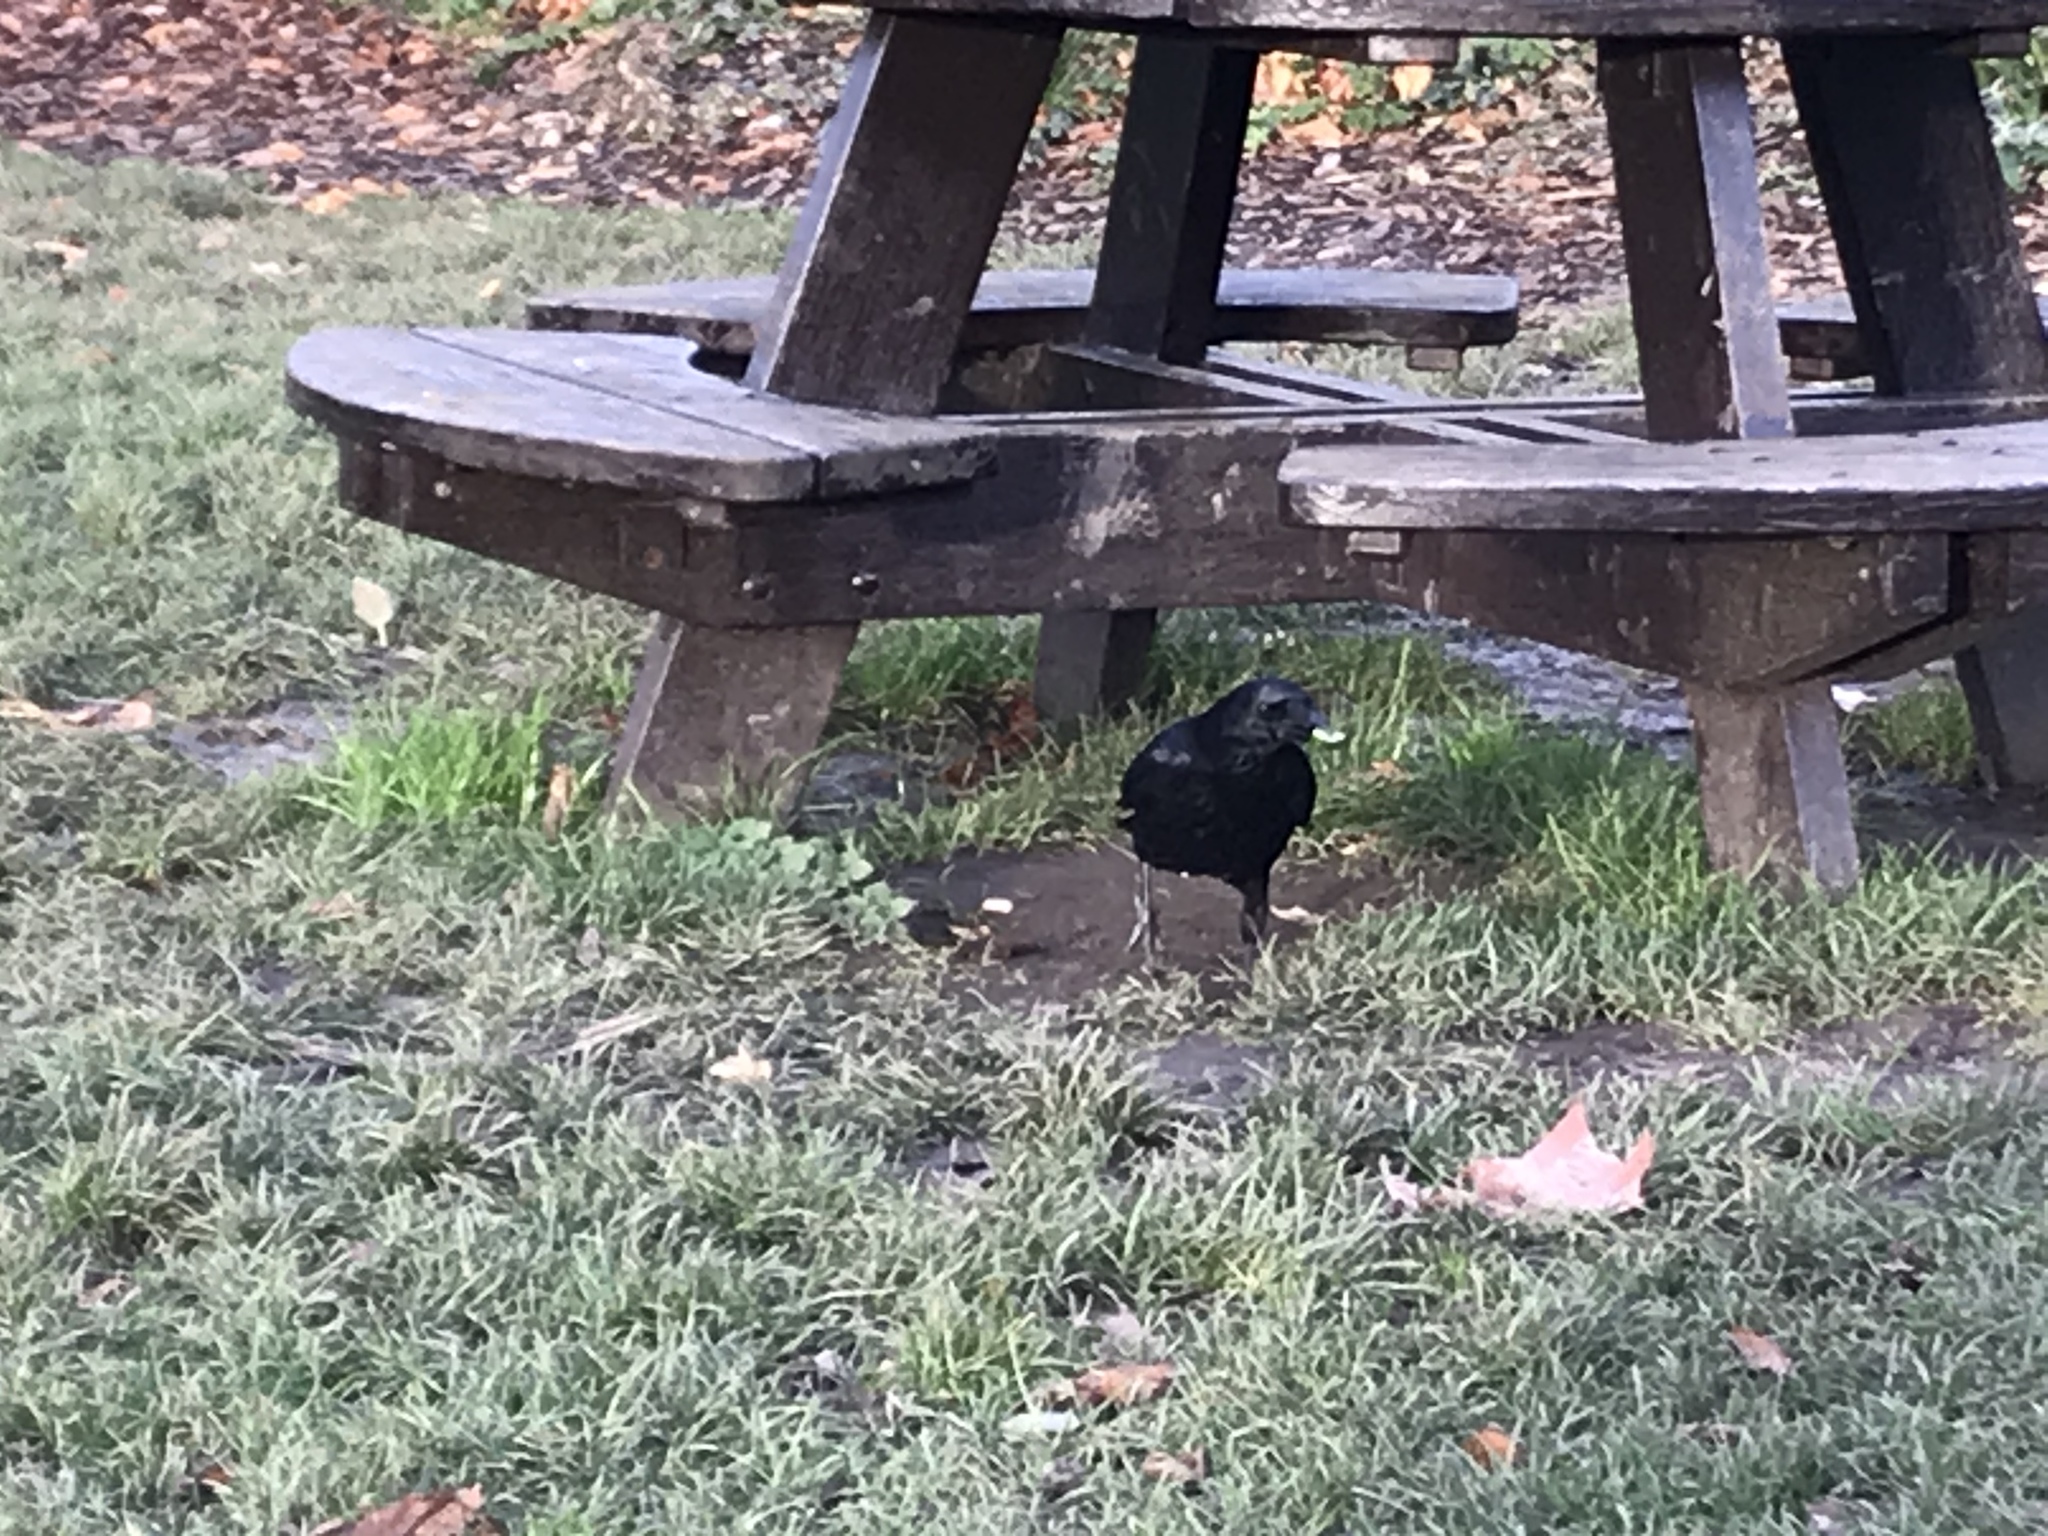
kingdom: Animalia
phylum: Chordata
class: Aves
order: Passeriformes
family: Corvidae
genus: Corvus
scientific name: Corvus corone
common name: Carrion crow
